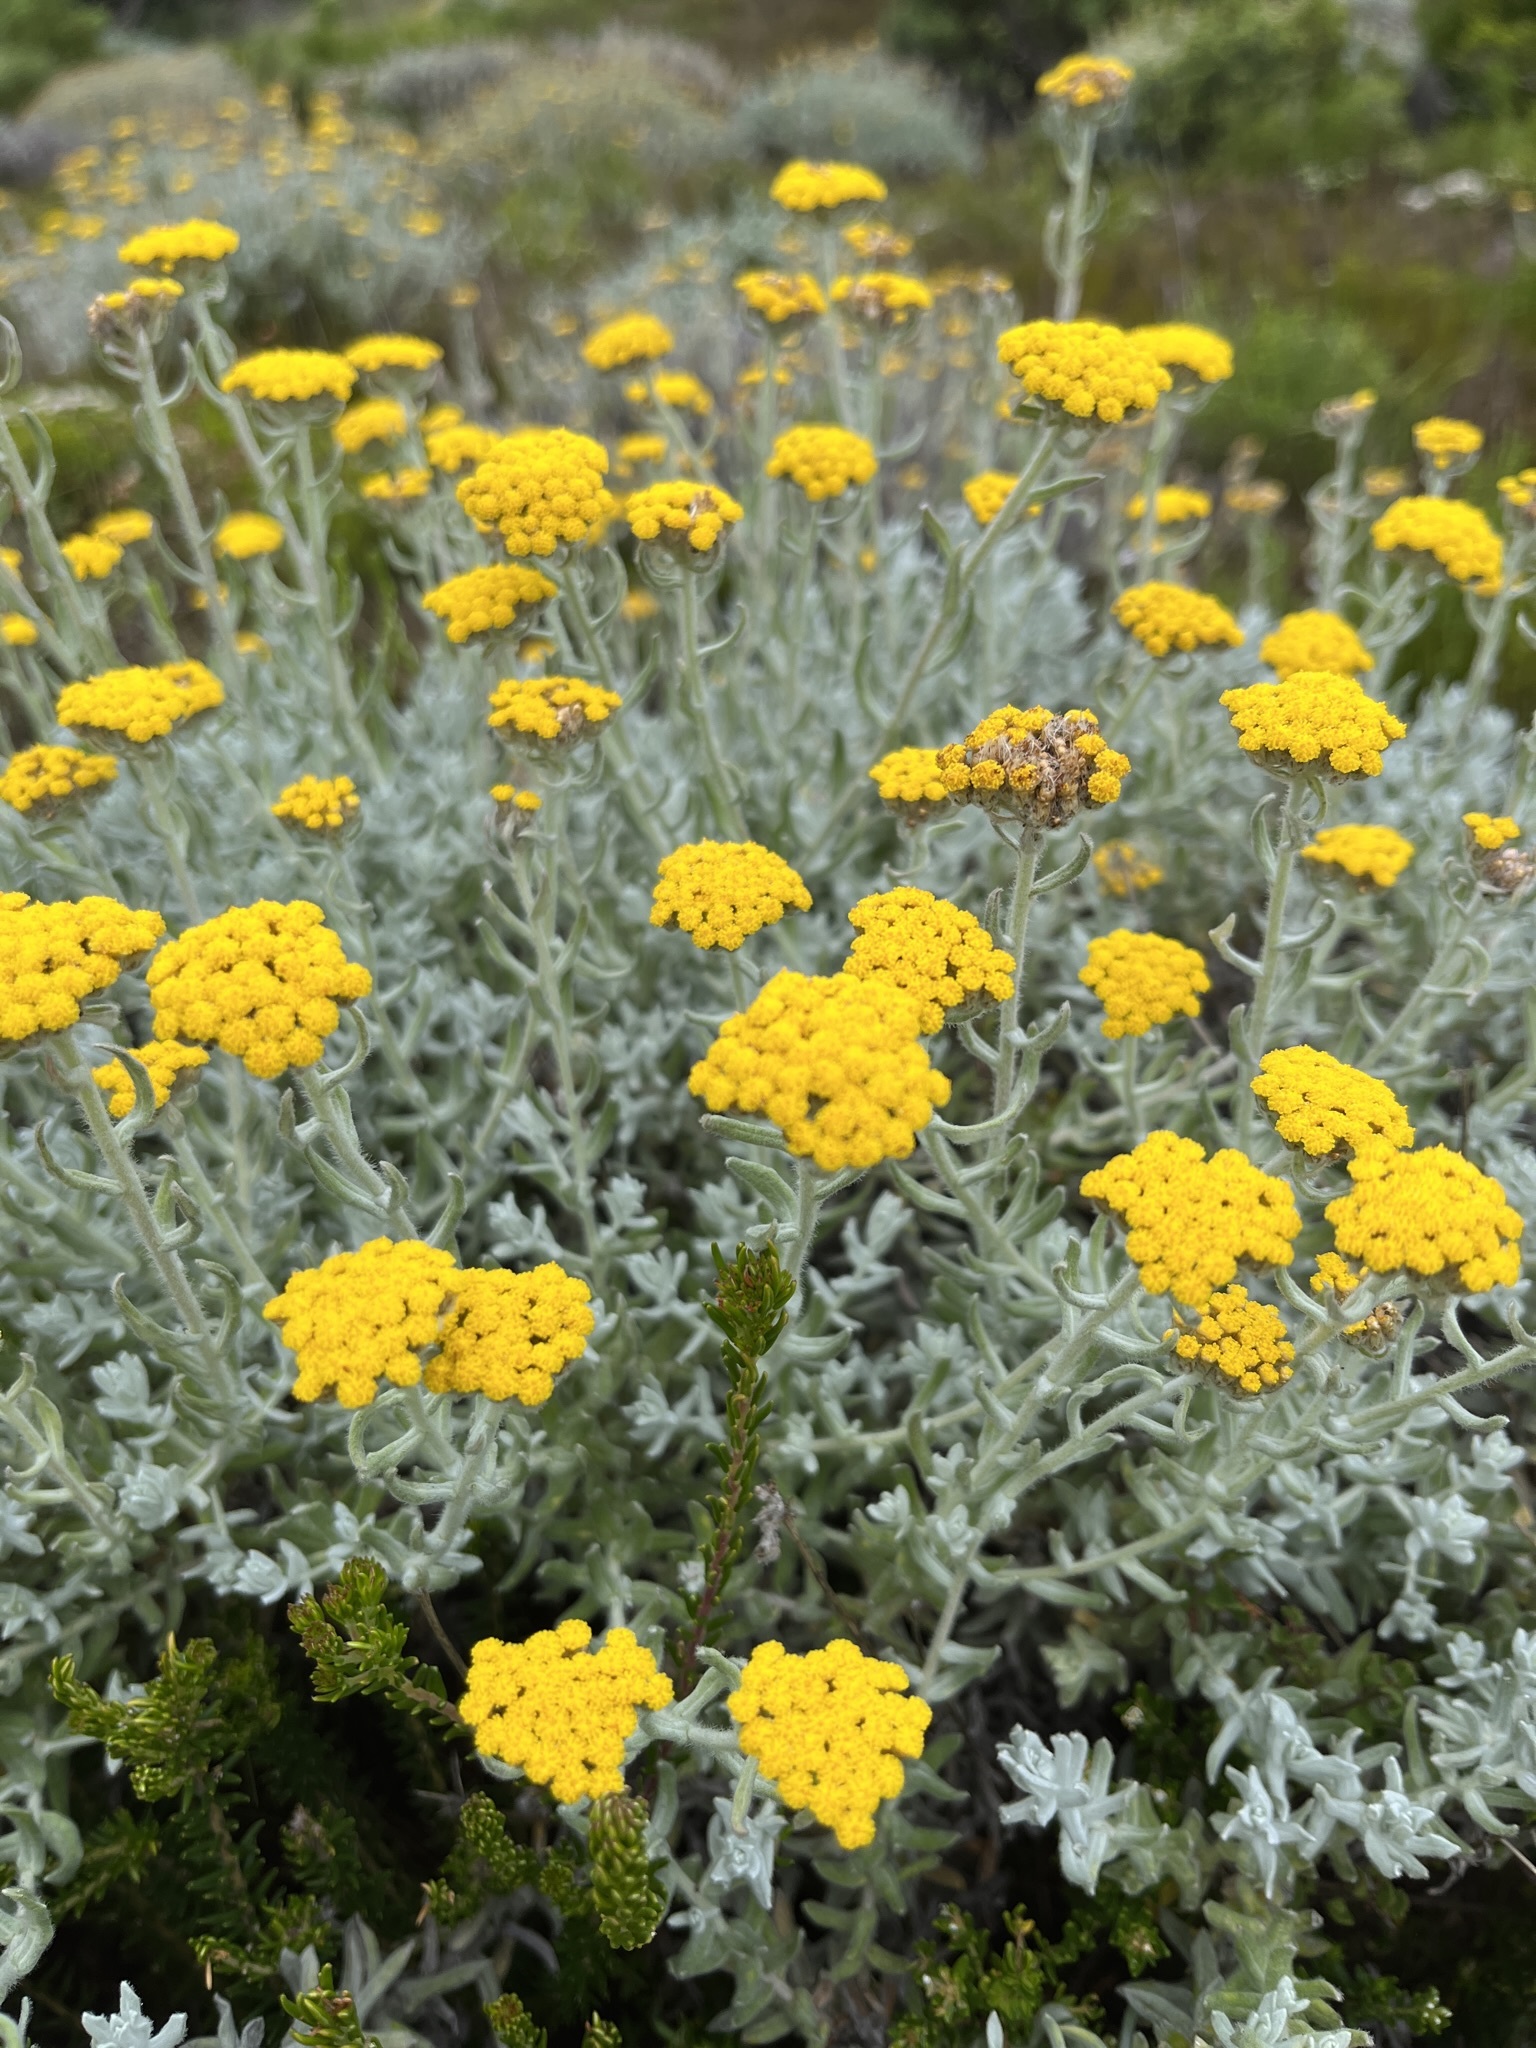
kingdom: Plantae
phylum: Tracheophyta
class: Magnoliopsida
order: Asterales
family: Asteraceae
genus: Helichrysum
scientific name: Helichrysum dasyanthum
